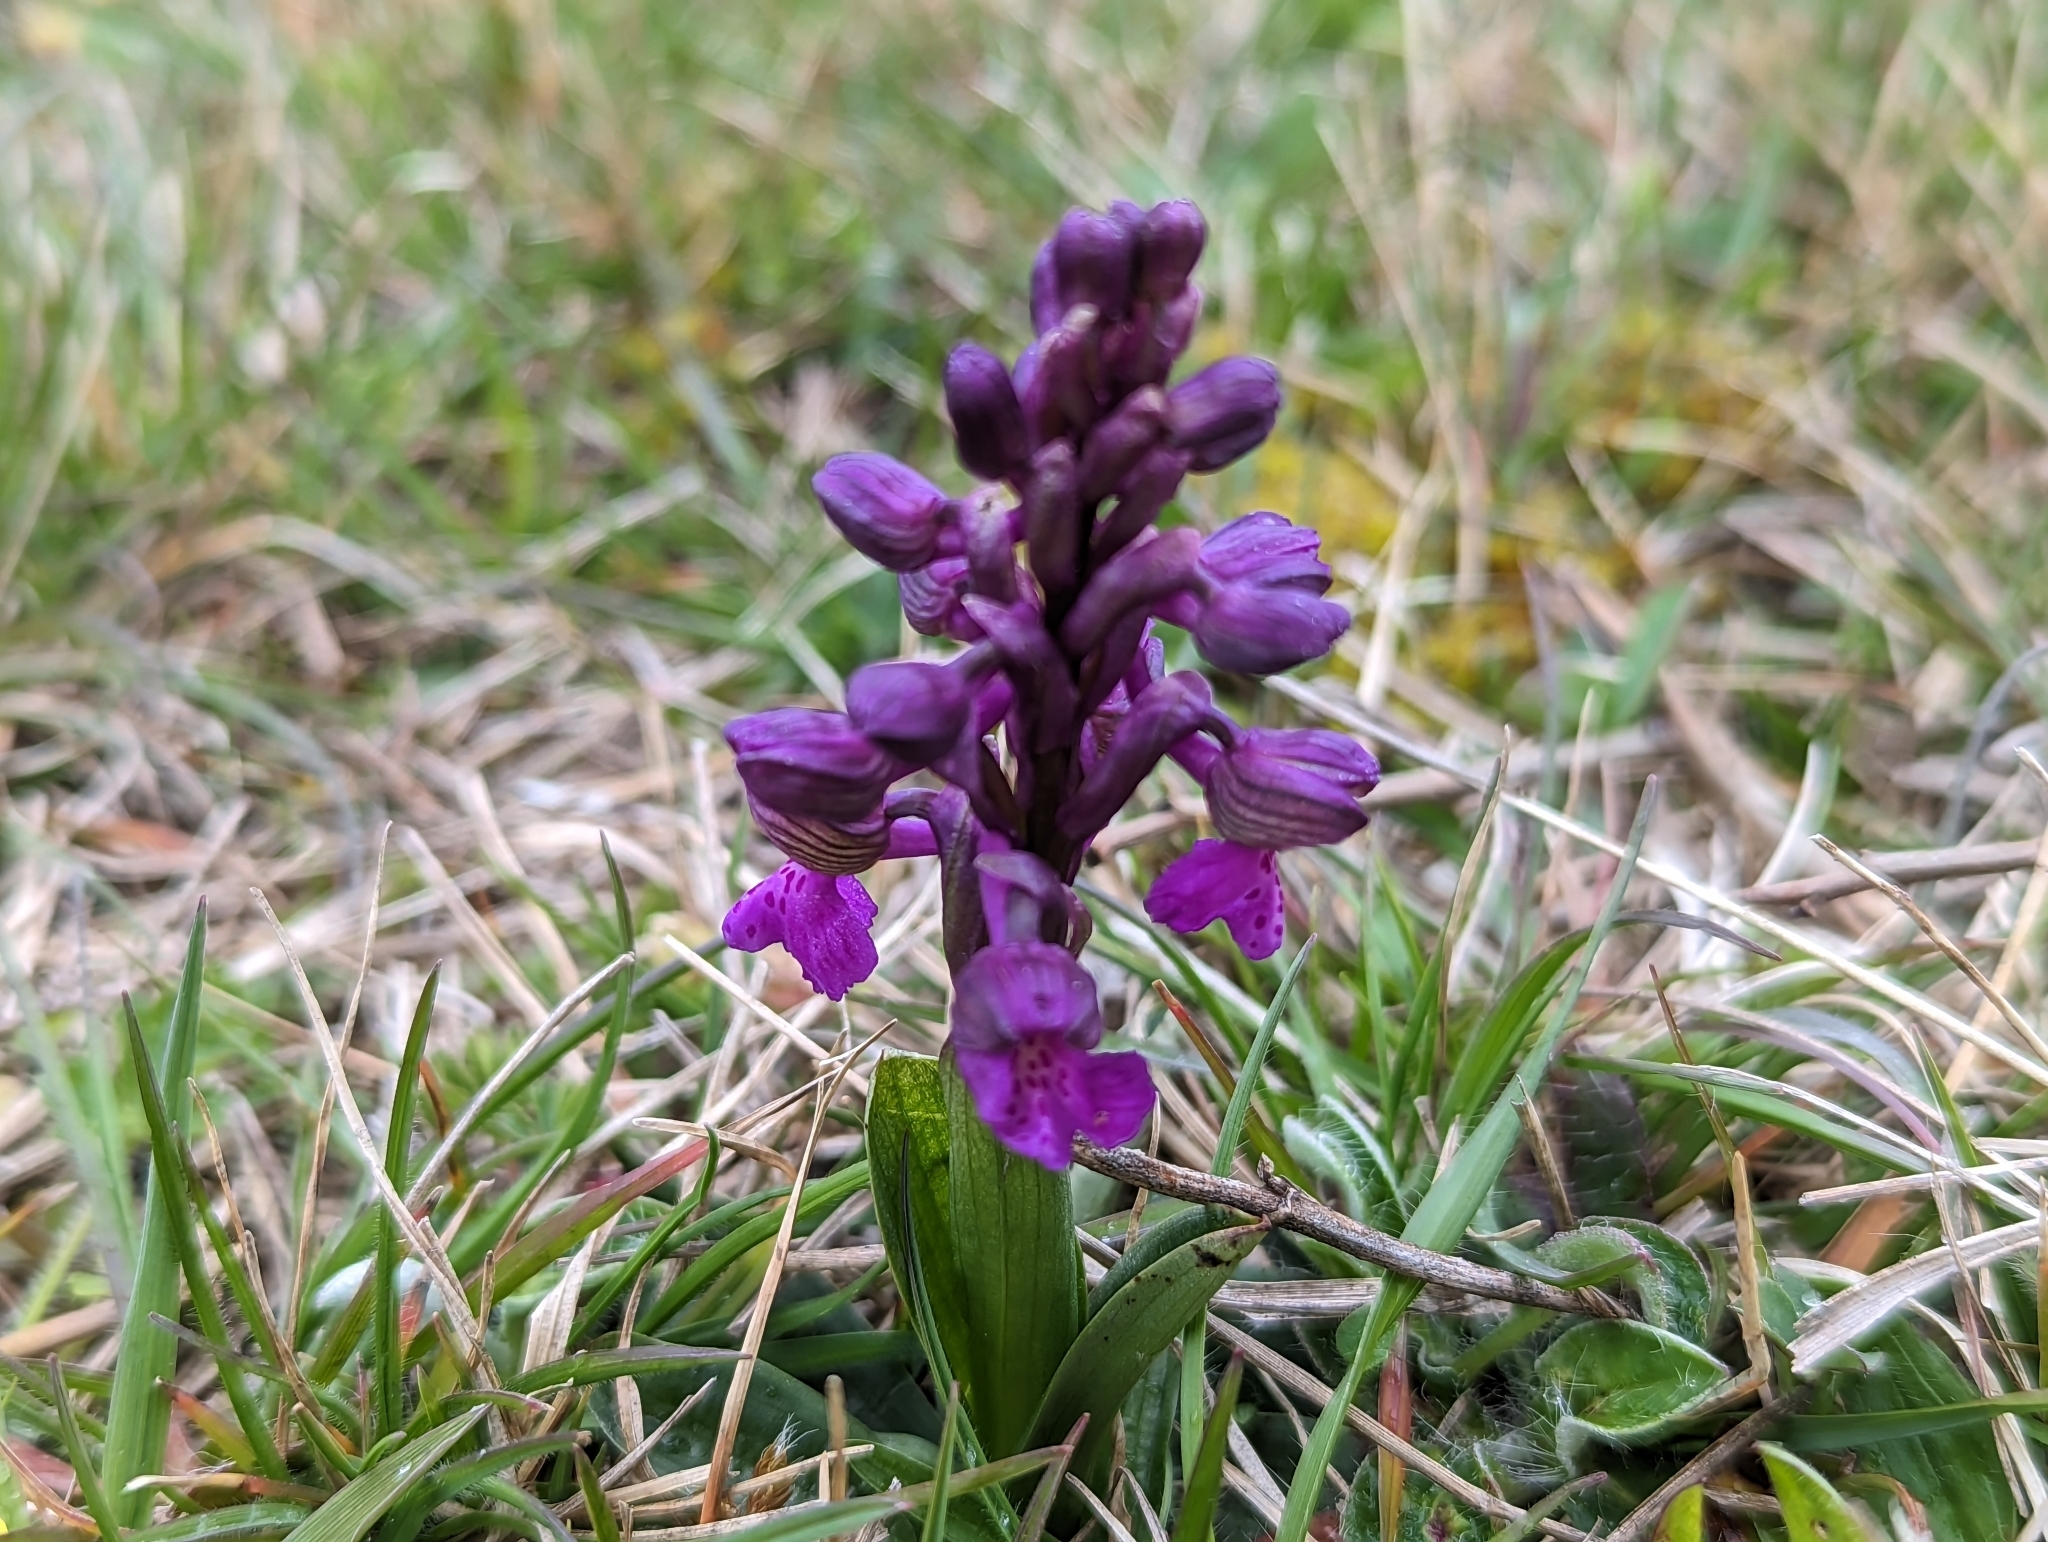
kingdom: Plantae
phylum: Tracheophyta
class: Liliopsida
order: Asparagales
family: Orchidaceae
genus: Anacamptis
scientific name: Anacamptis morio
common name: Green-winged orchid
